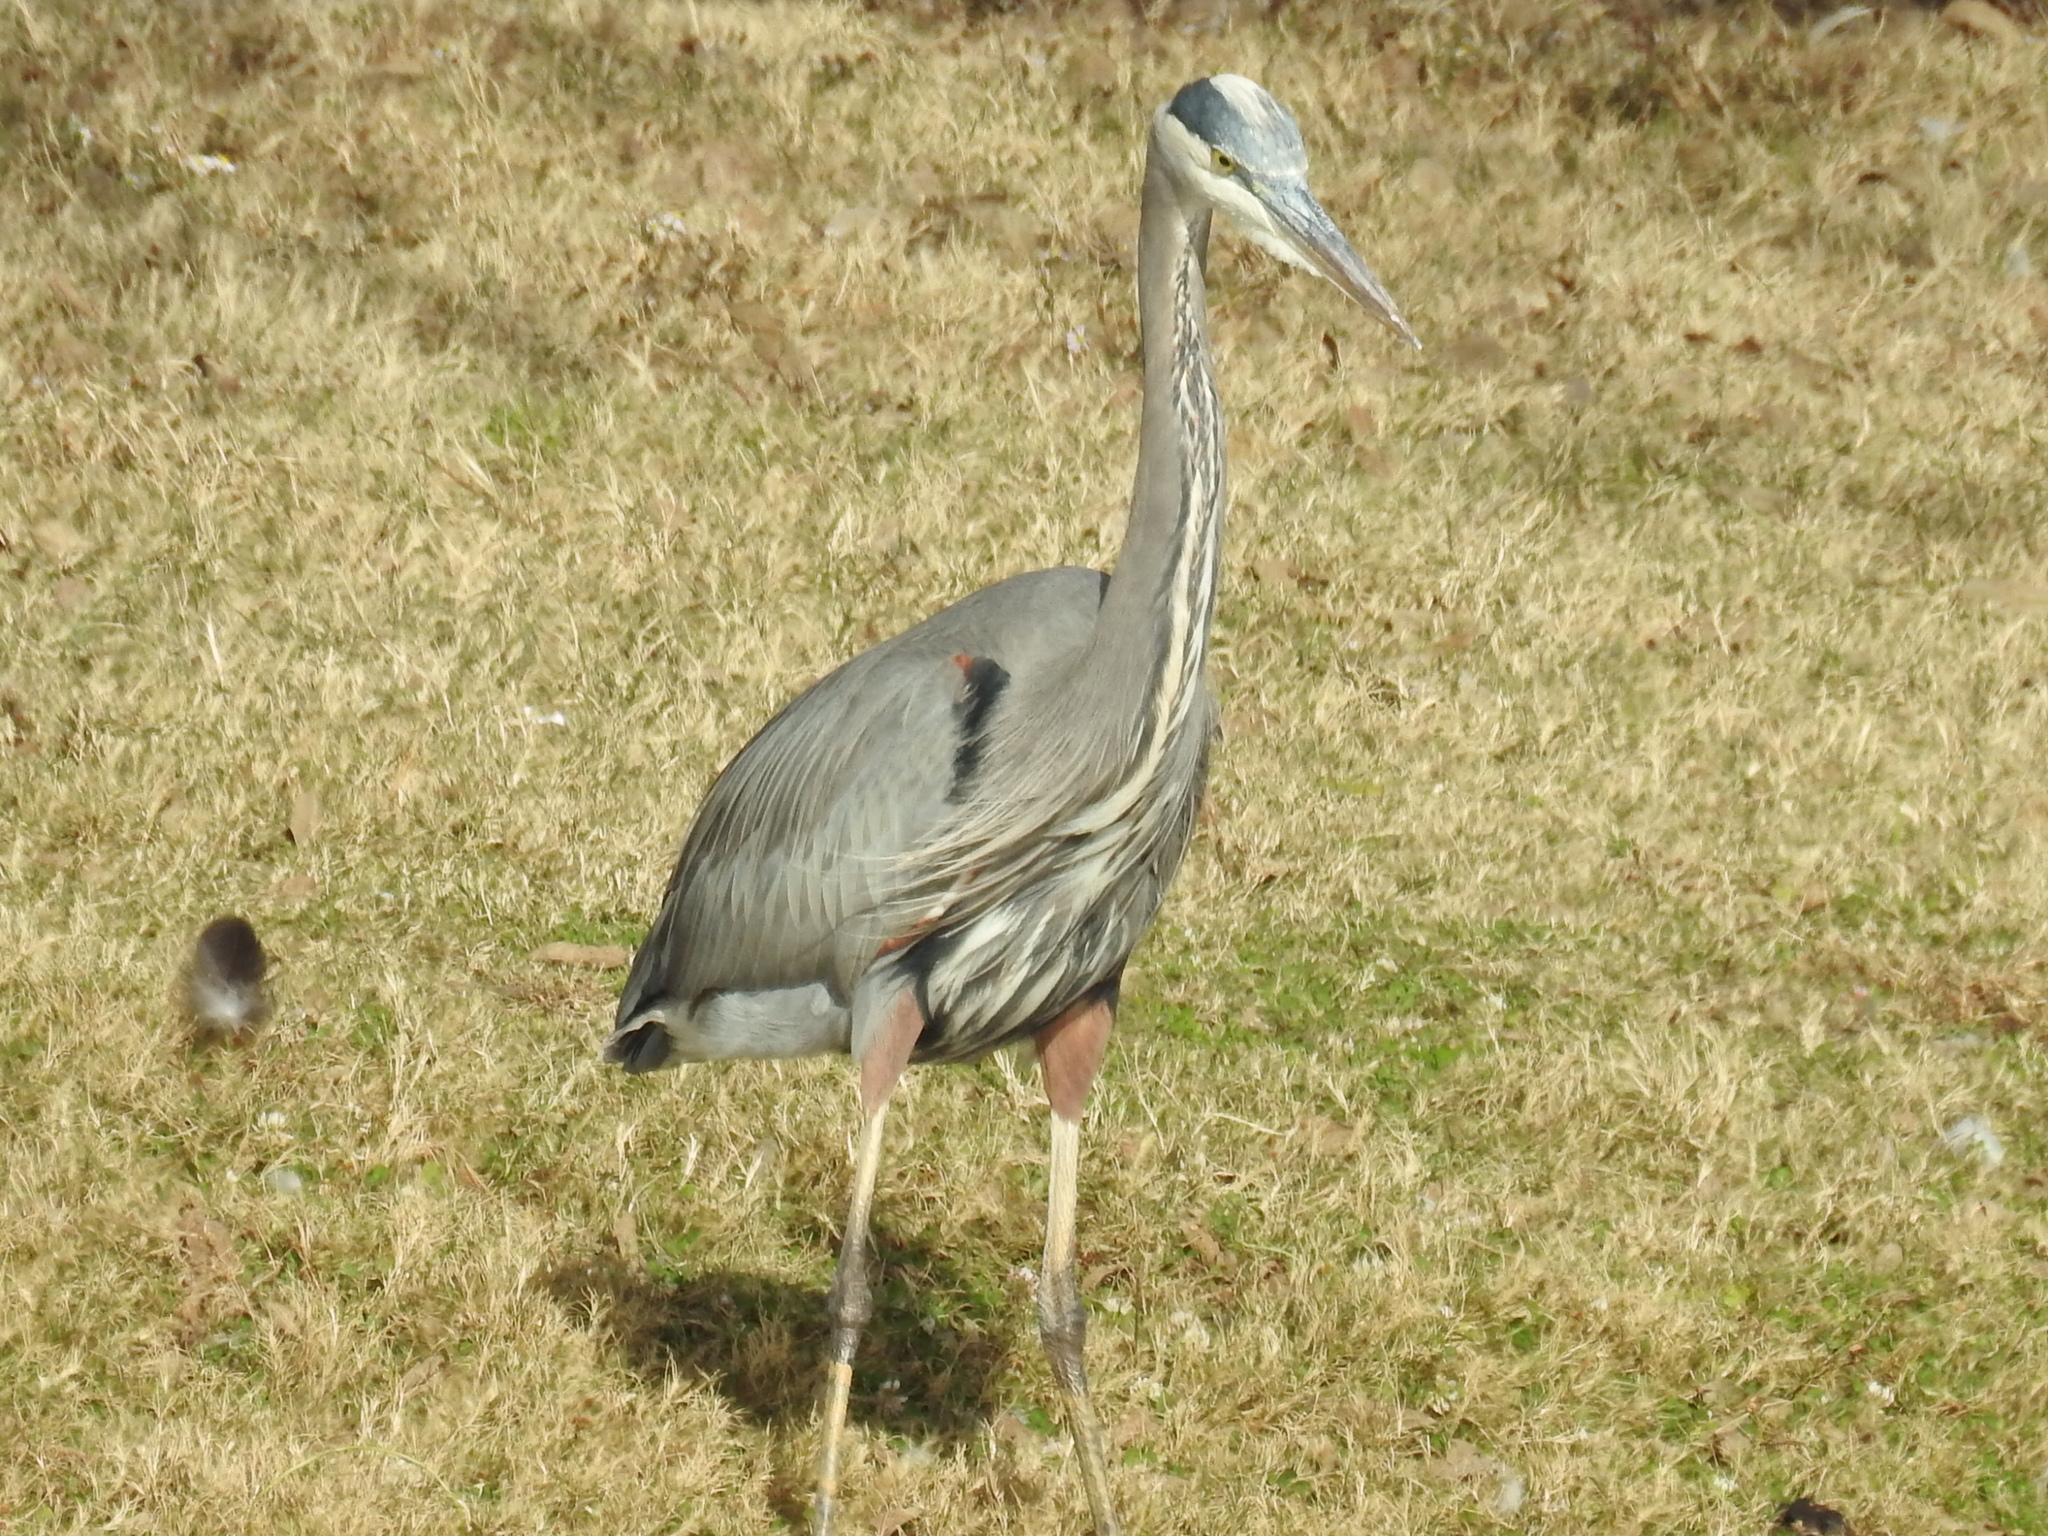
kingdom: Animalia
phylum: Chordata
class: Aves
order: Pelecaniformes
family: Ardeidae
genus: Ardea
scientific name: Ardea herodias
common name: Great blue heron
